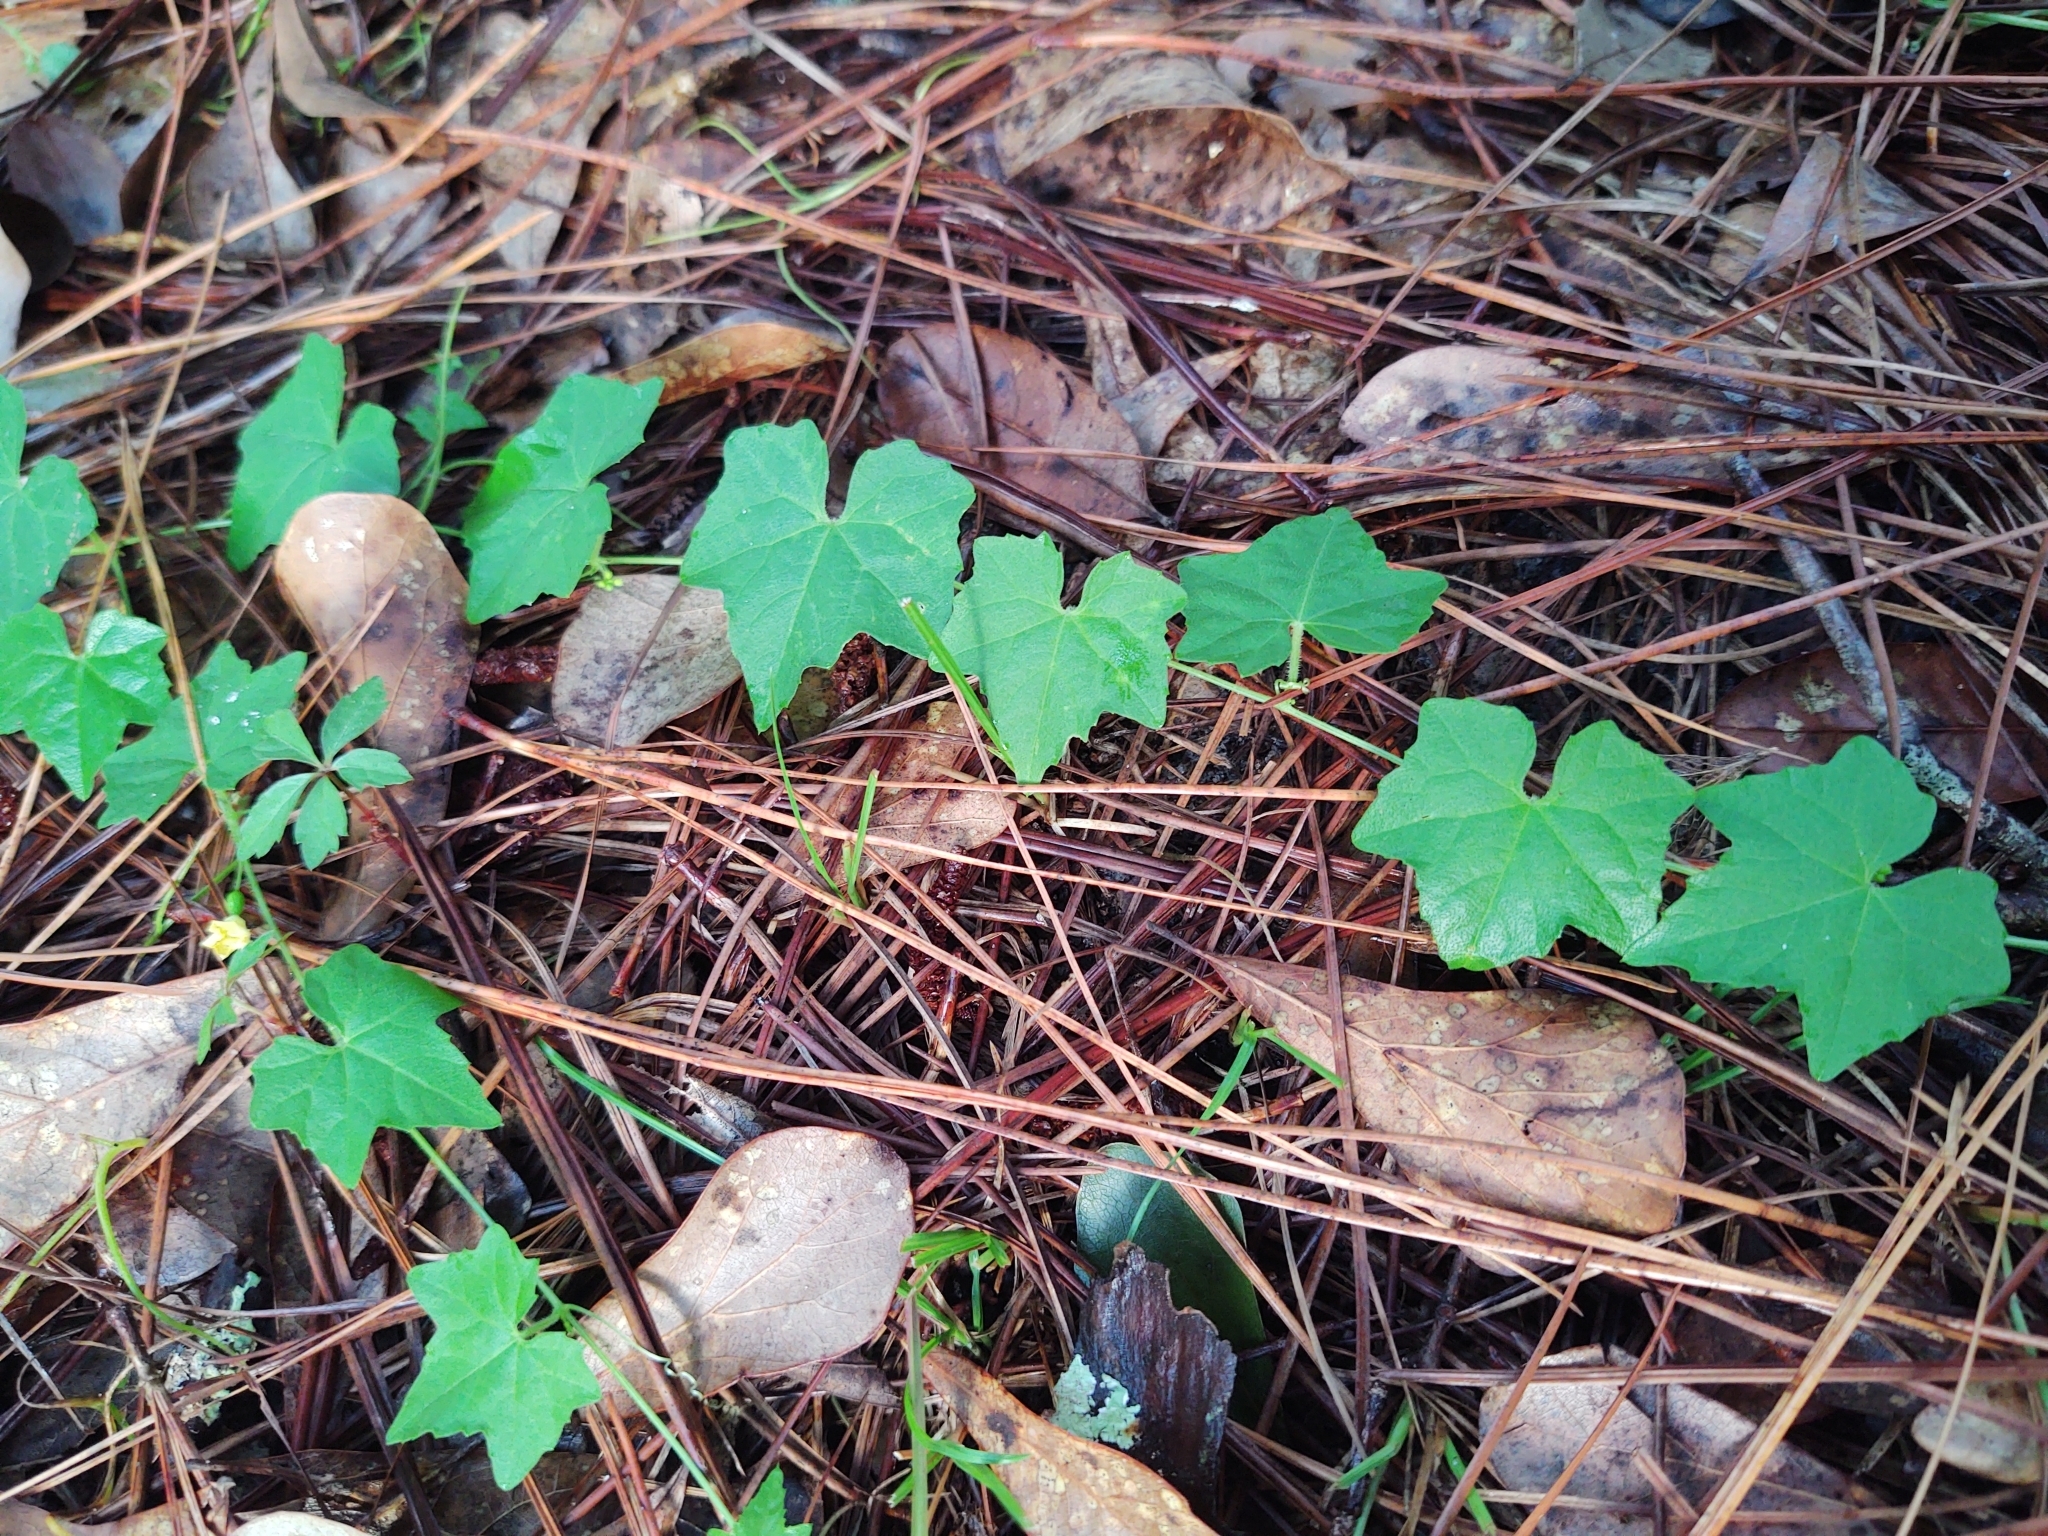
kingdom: Plantae
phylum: Tracheophyta
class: Magnoliopsida
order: Cucurbitales
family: Cucurbitaceae
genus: Melothria
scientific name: Melothria pendula
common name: Creeping-cucumber
